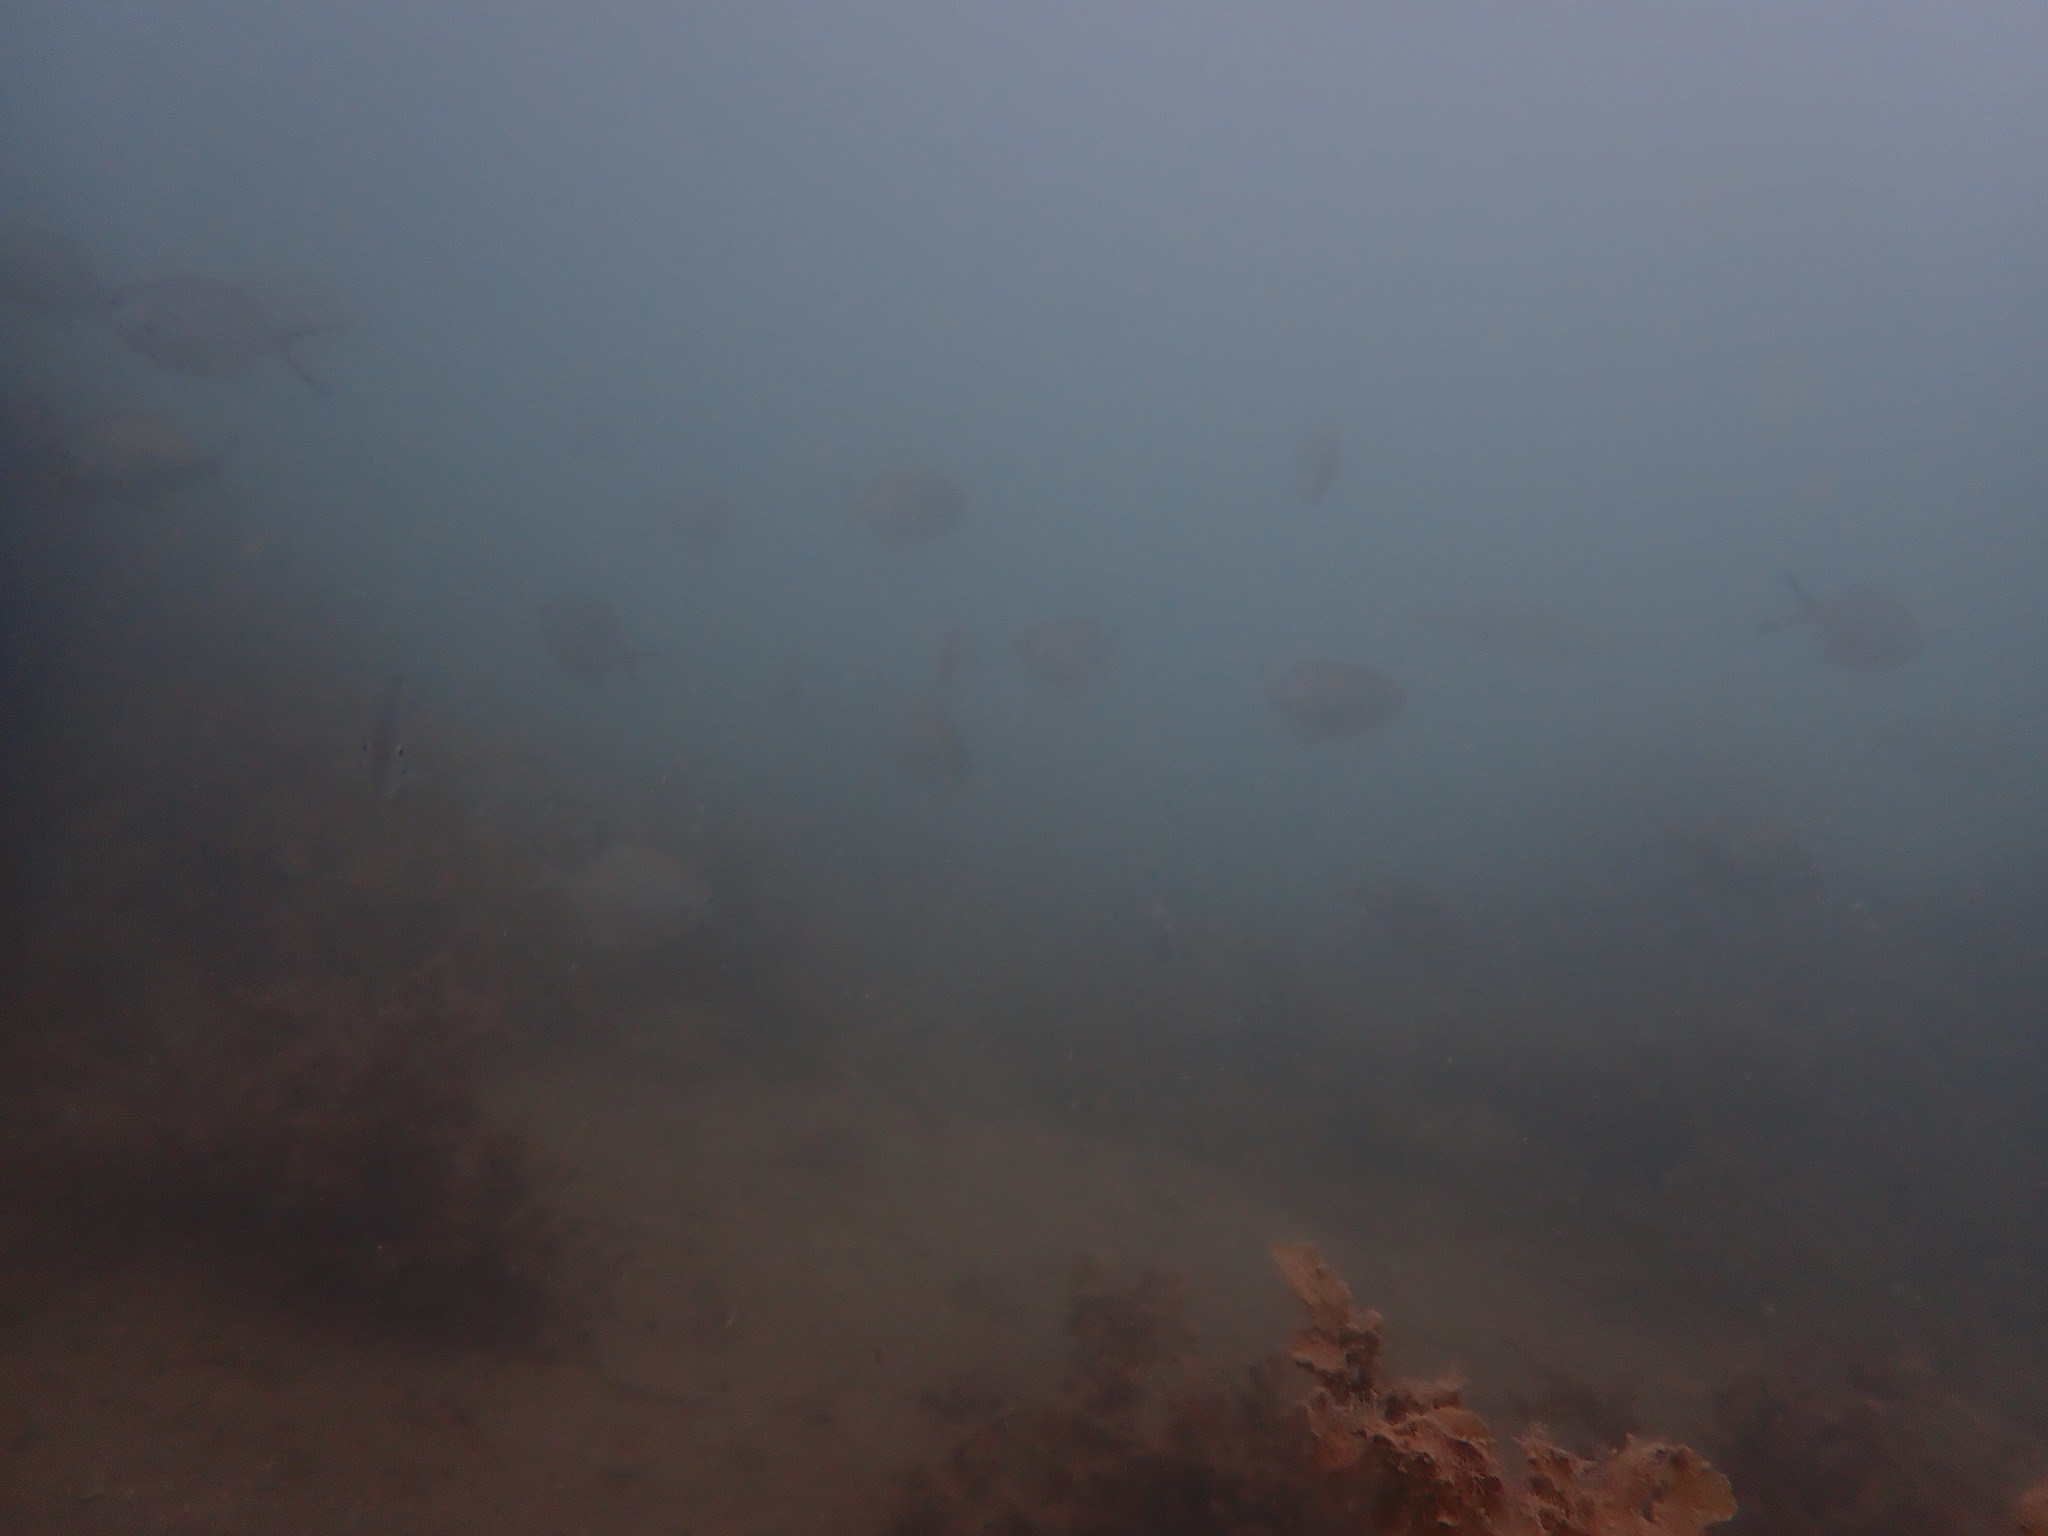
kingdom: Animalia
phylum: Chordata
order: Perciformes
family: Kyphosidae
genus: Scorpis
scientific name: Scorpis lineolata
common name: Sweep
